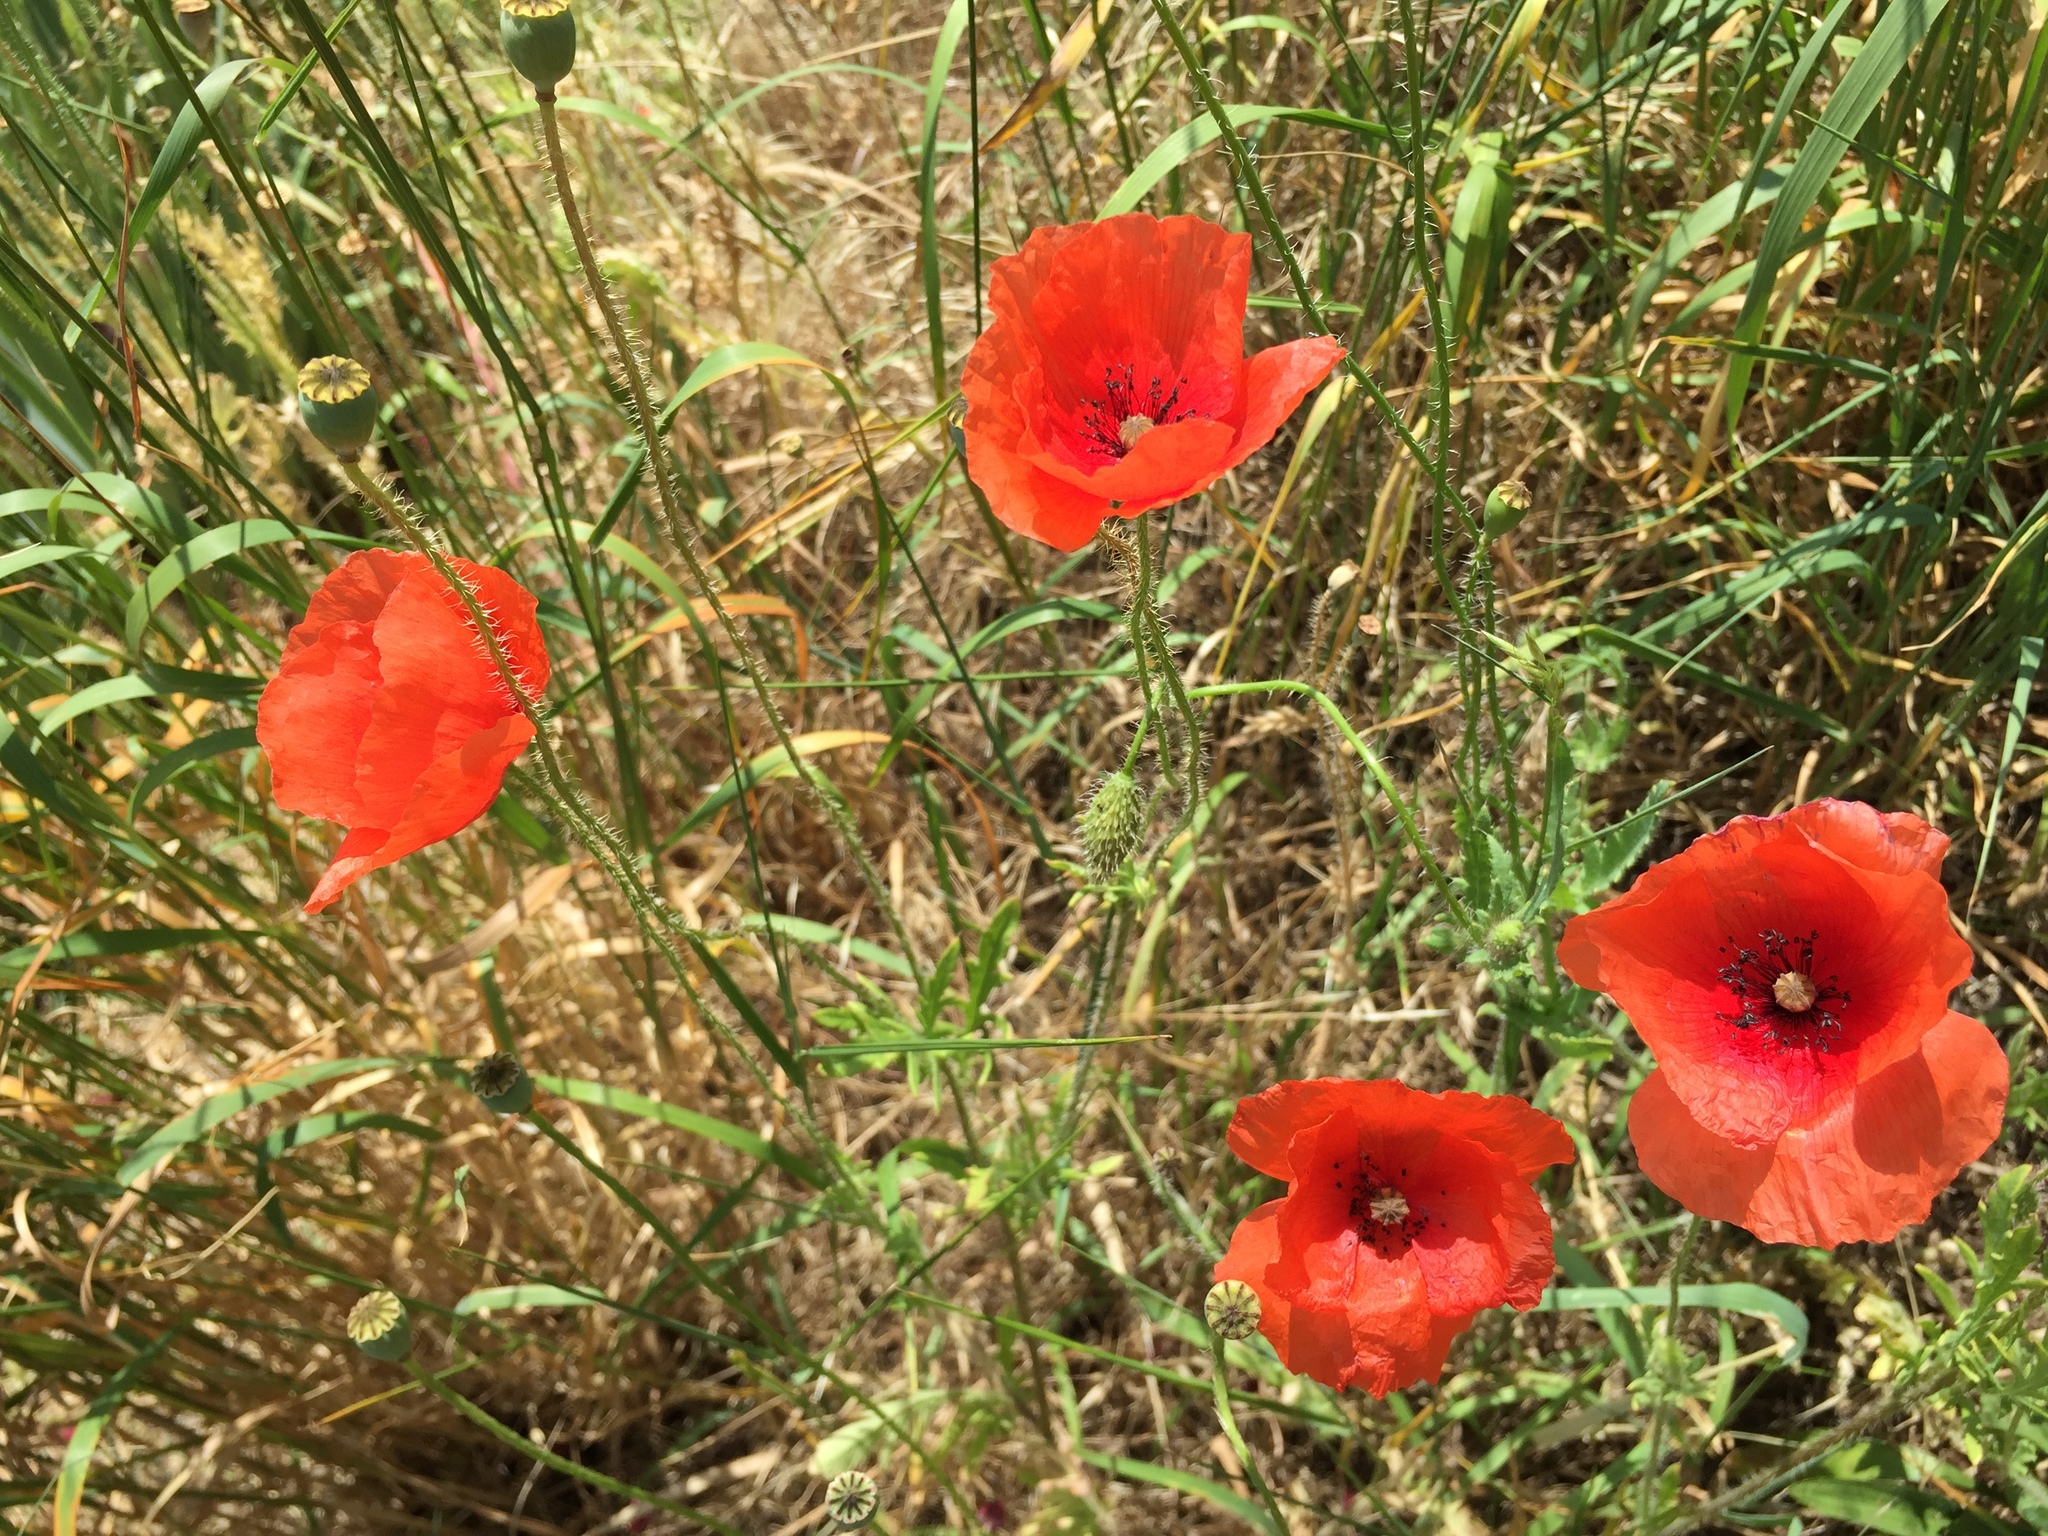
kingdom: Plantae
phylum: Tracheophyta
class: Magnoliopsida
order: Ranunculales
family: Papaveraceae
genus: Papaver
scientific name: Papaver rhoeas
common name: Corn poppy
